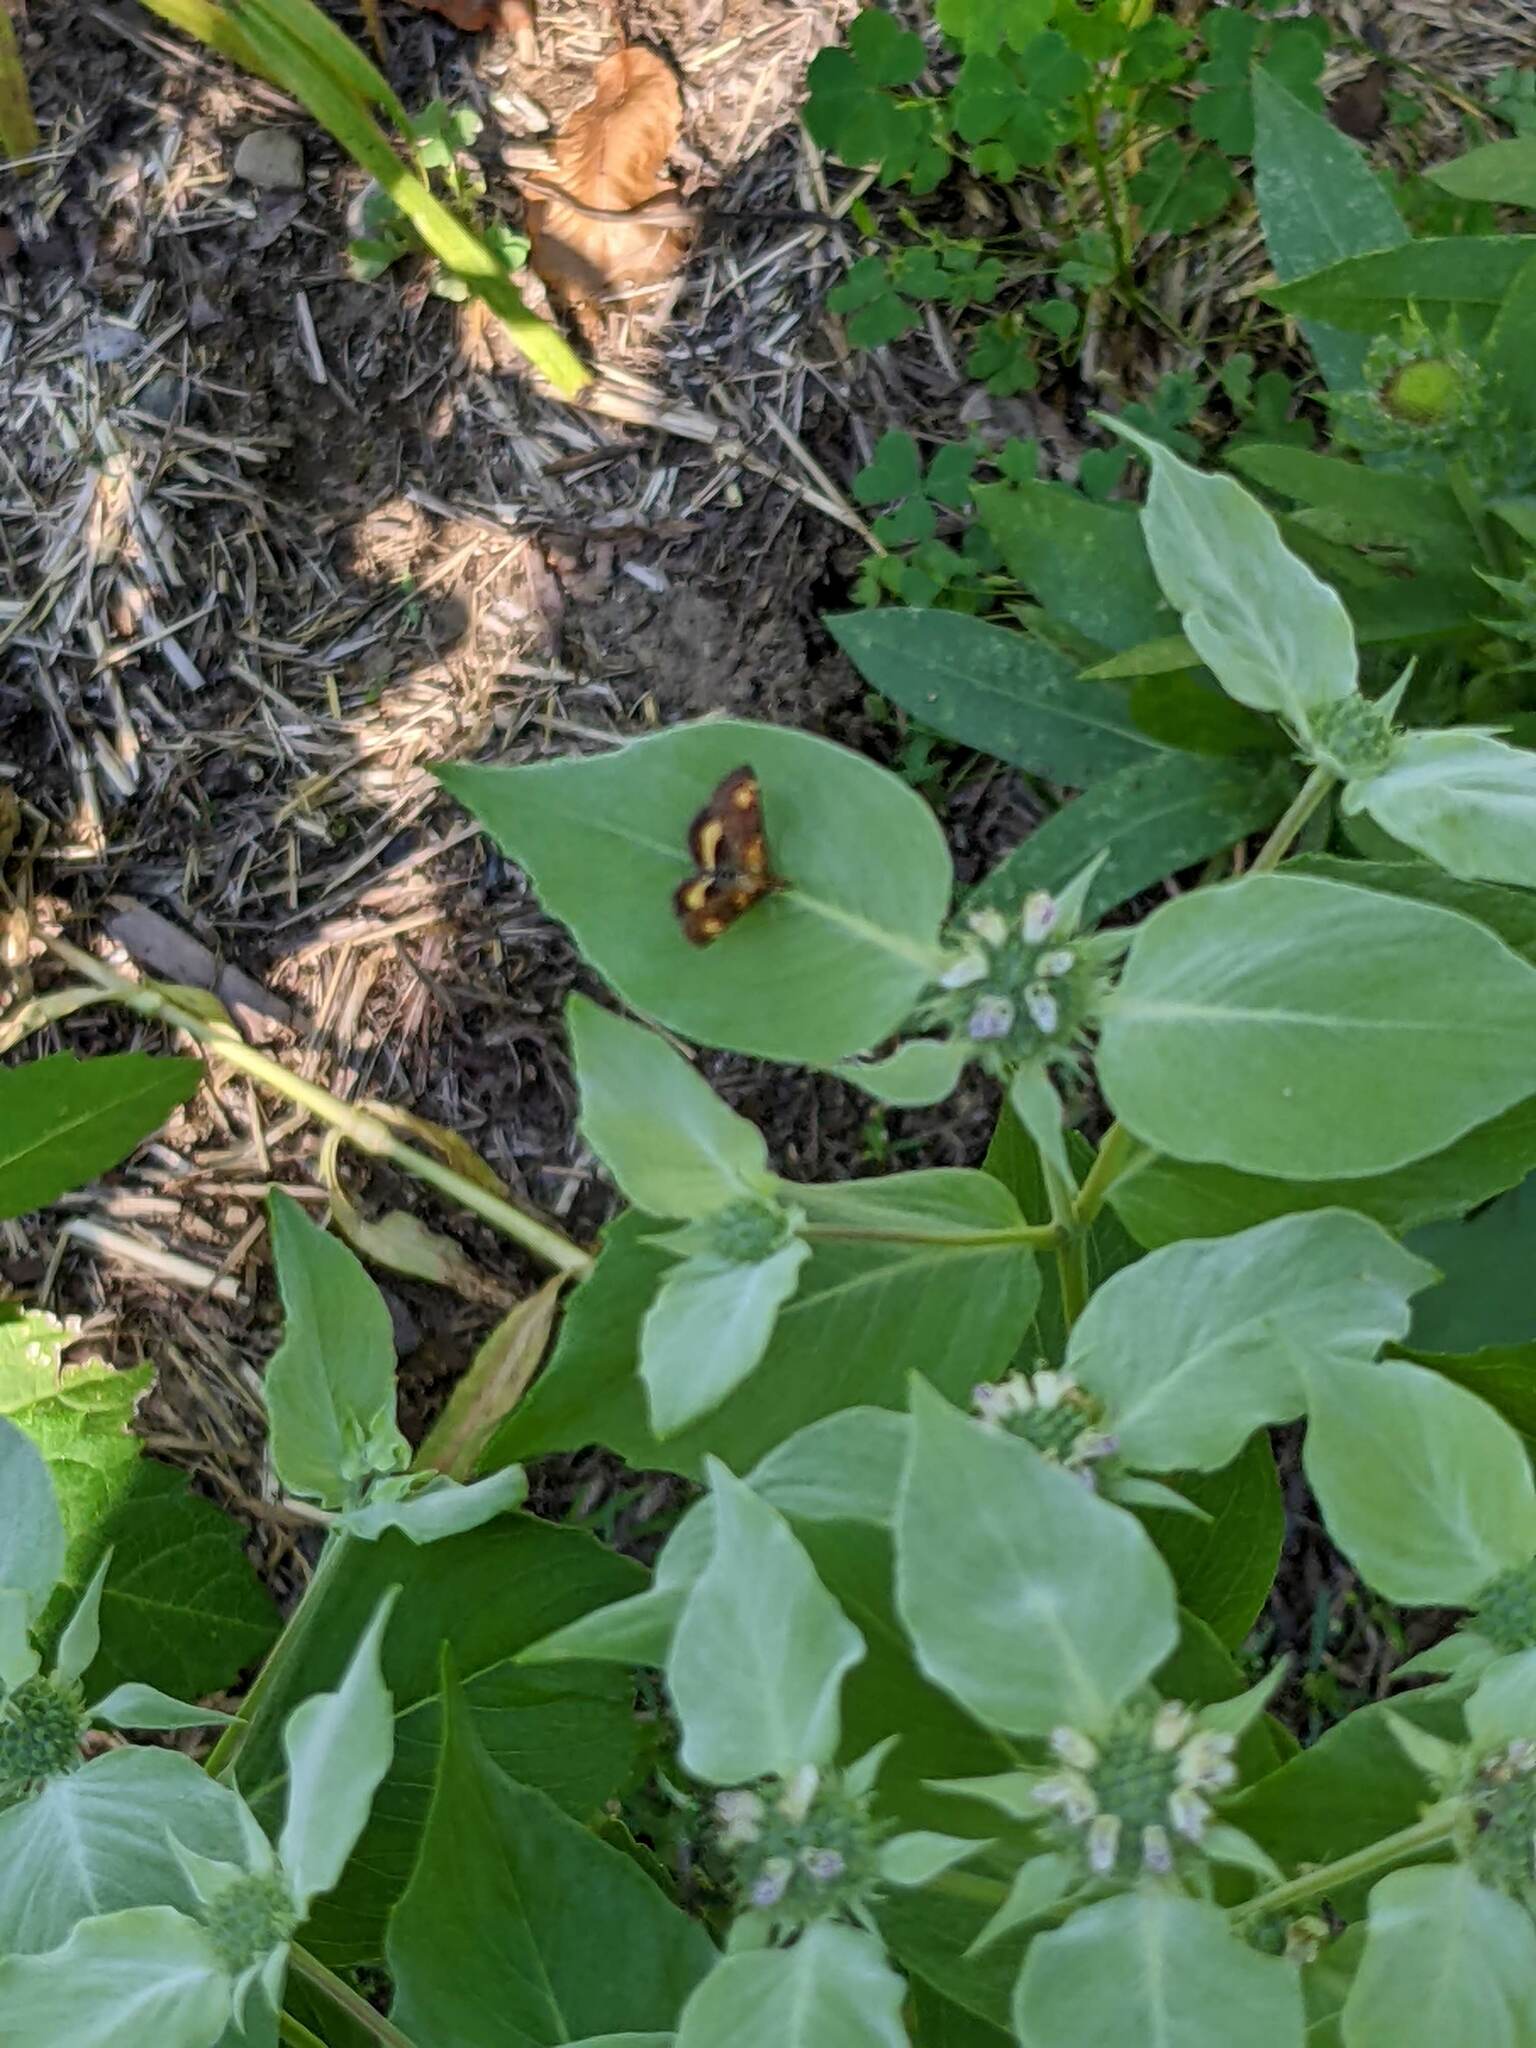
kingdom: Animalia
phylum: Arthropoda
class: Insecta
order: Lepidoptera
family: Crambidae
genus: Pyrausta
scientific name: Pyrausta orphisalis
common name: Orange mint moth
